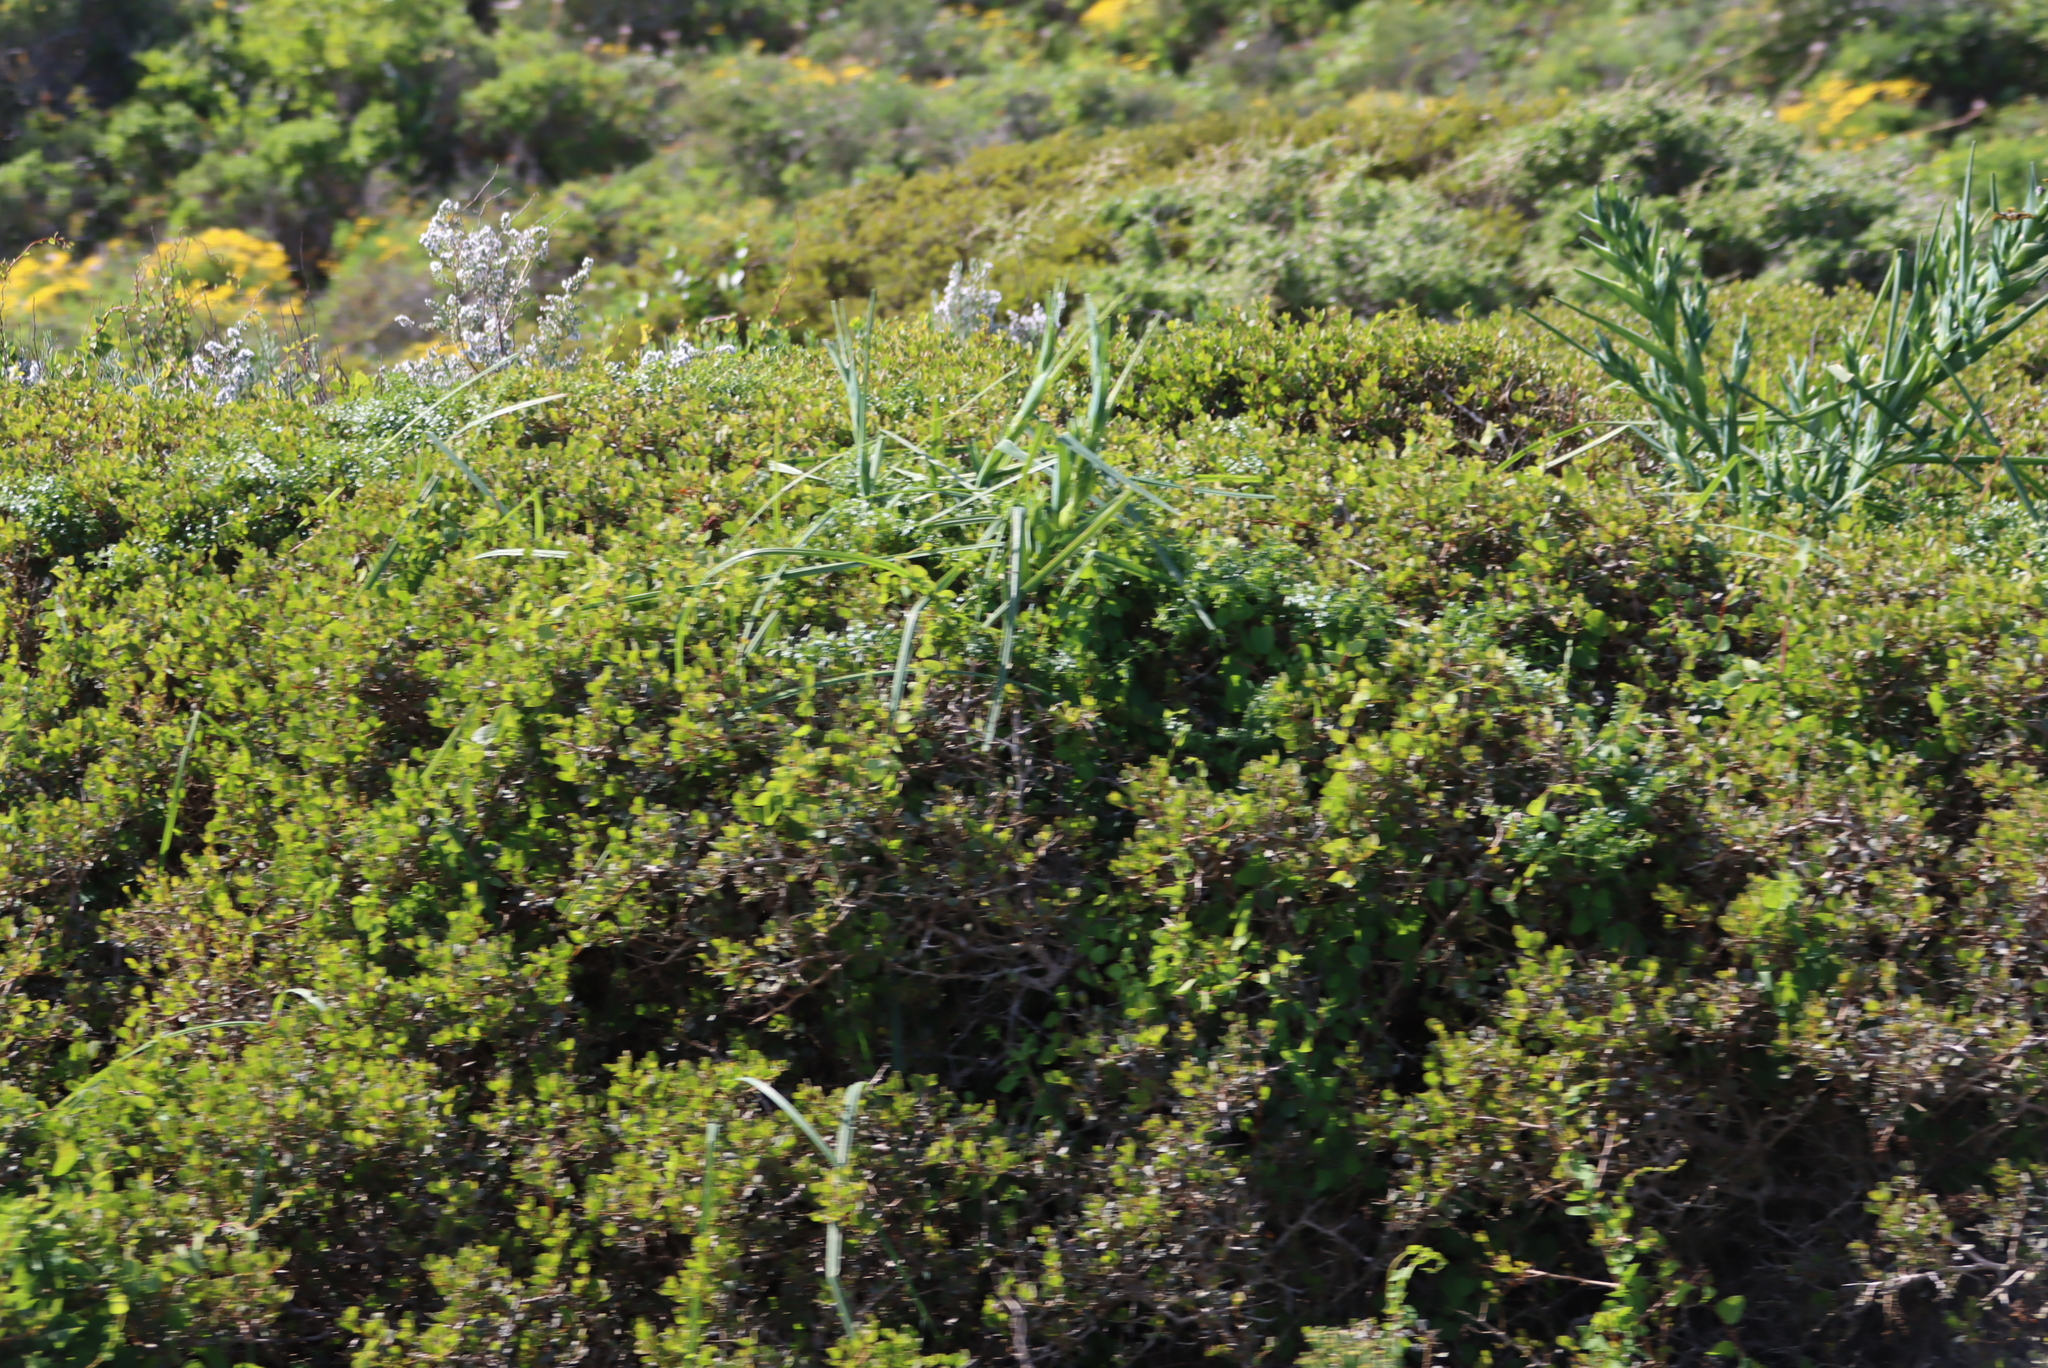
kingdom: Plantae
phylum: Tracheophyta
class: Liliopsida
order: Asparagales
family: Iridaceae
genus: Ferraria
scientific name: Ferraria crispa
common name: Black-flag
